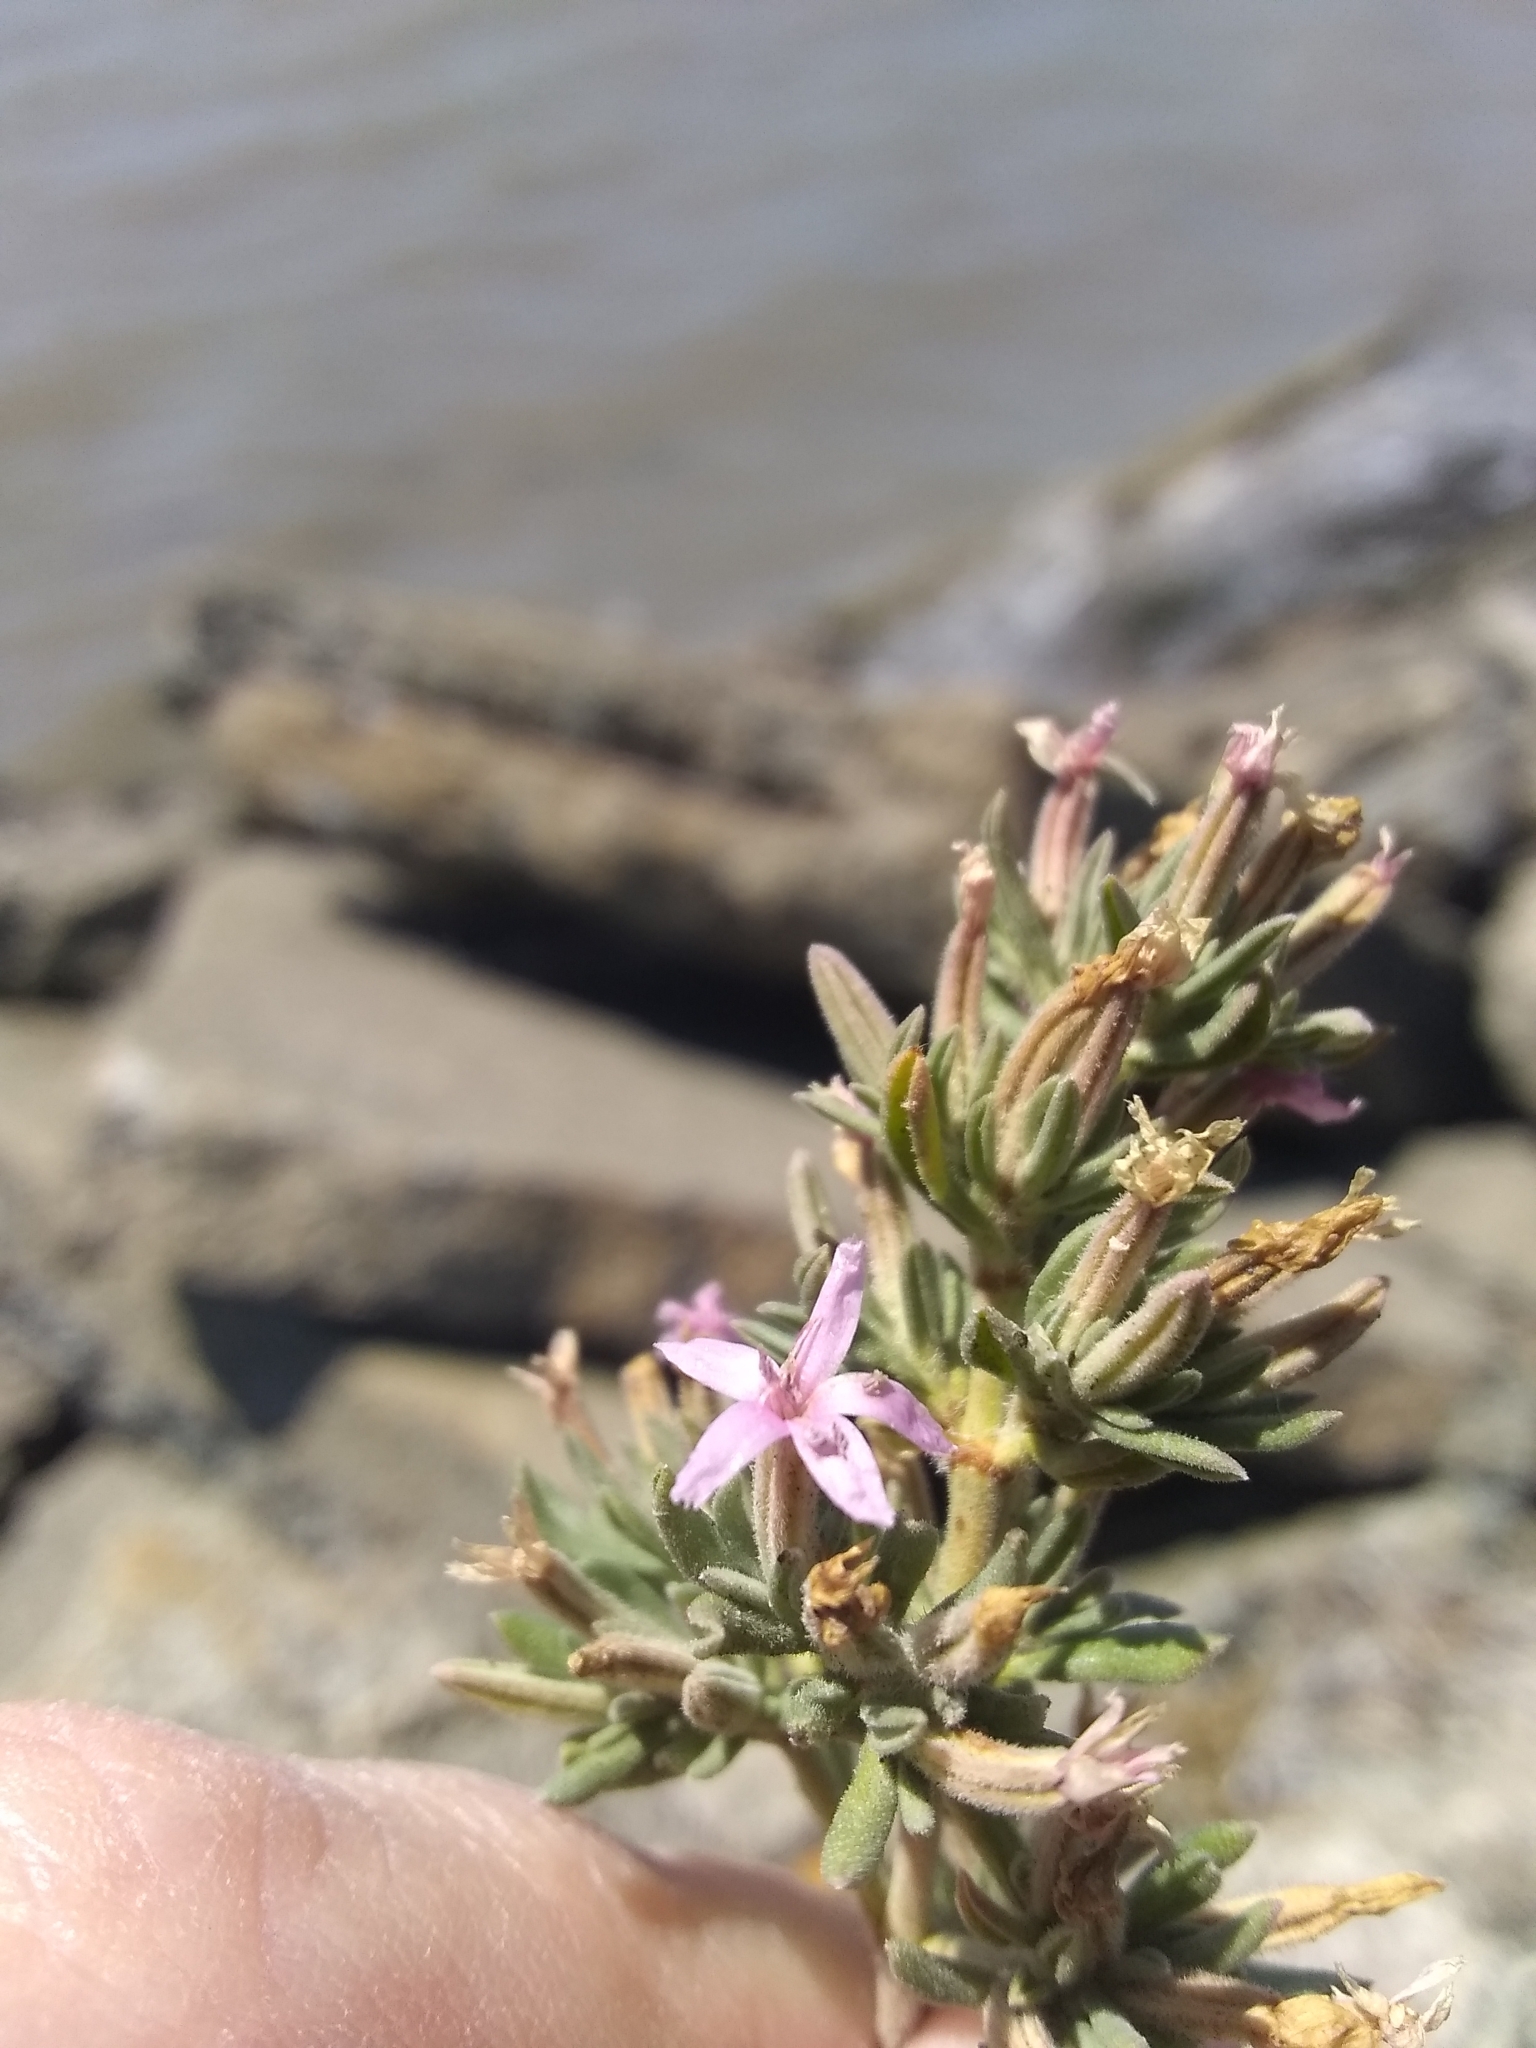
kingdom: Plantae
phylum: Tracheophyta
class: Magnoliopsida
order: Caryophyllales
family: Frankeniaceae
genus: Frankenia
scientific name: Frankenia salina
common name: Alkali seaheath
